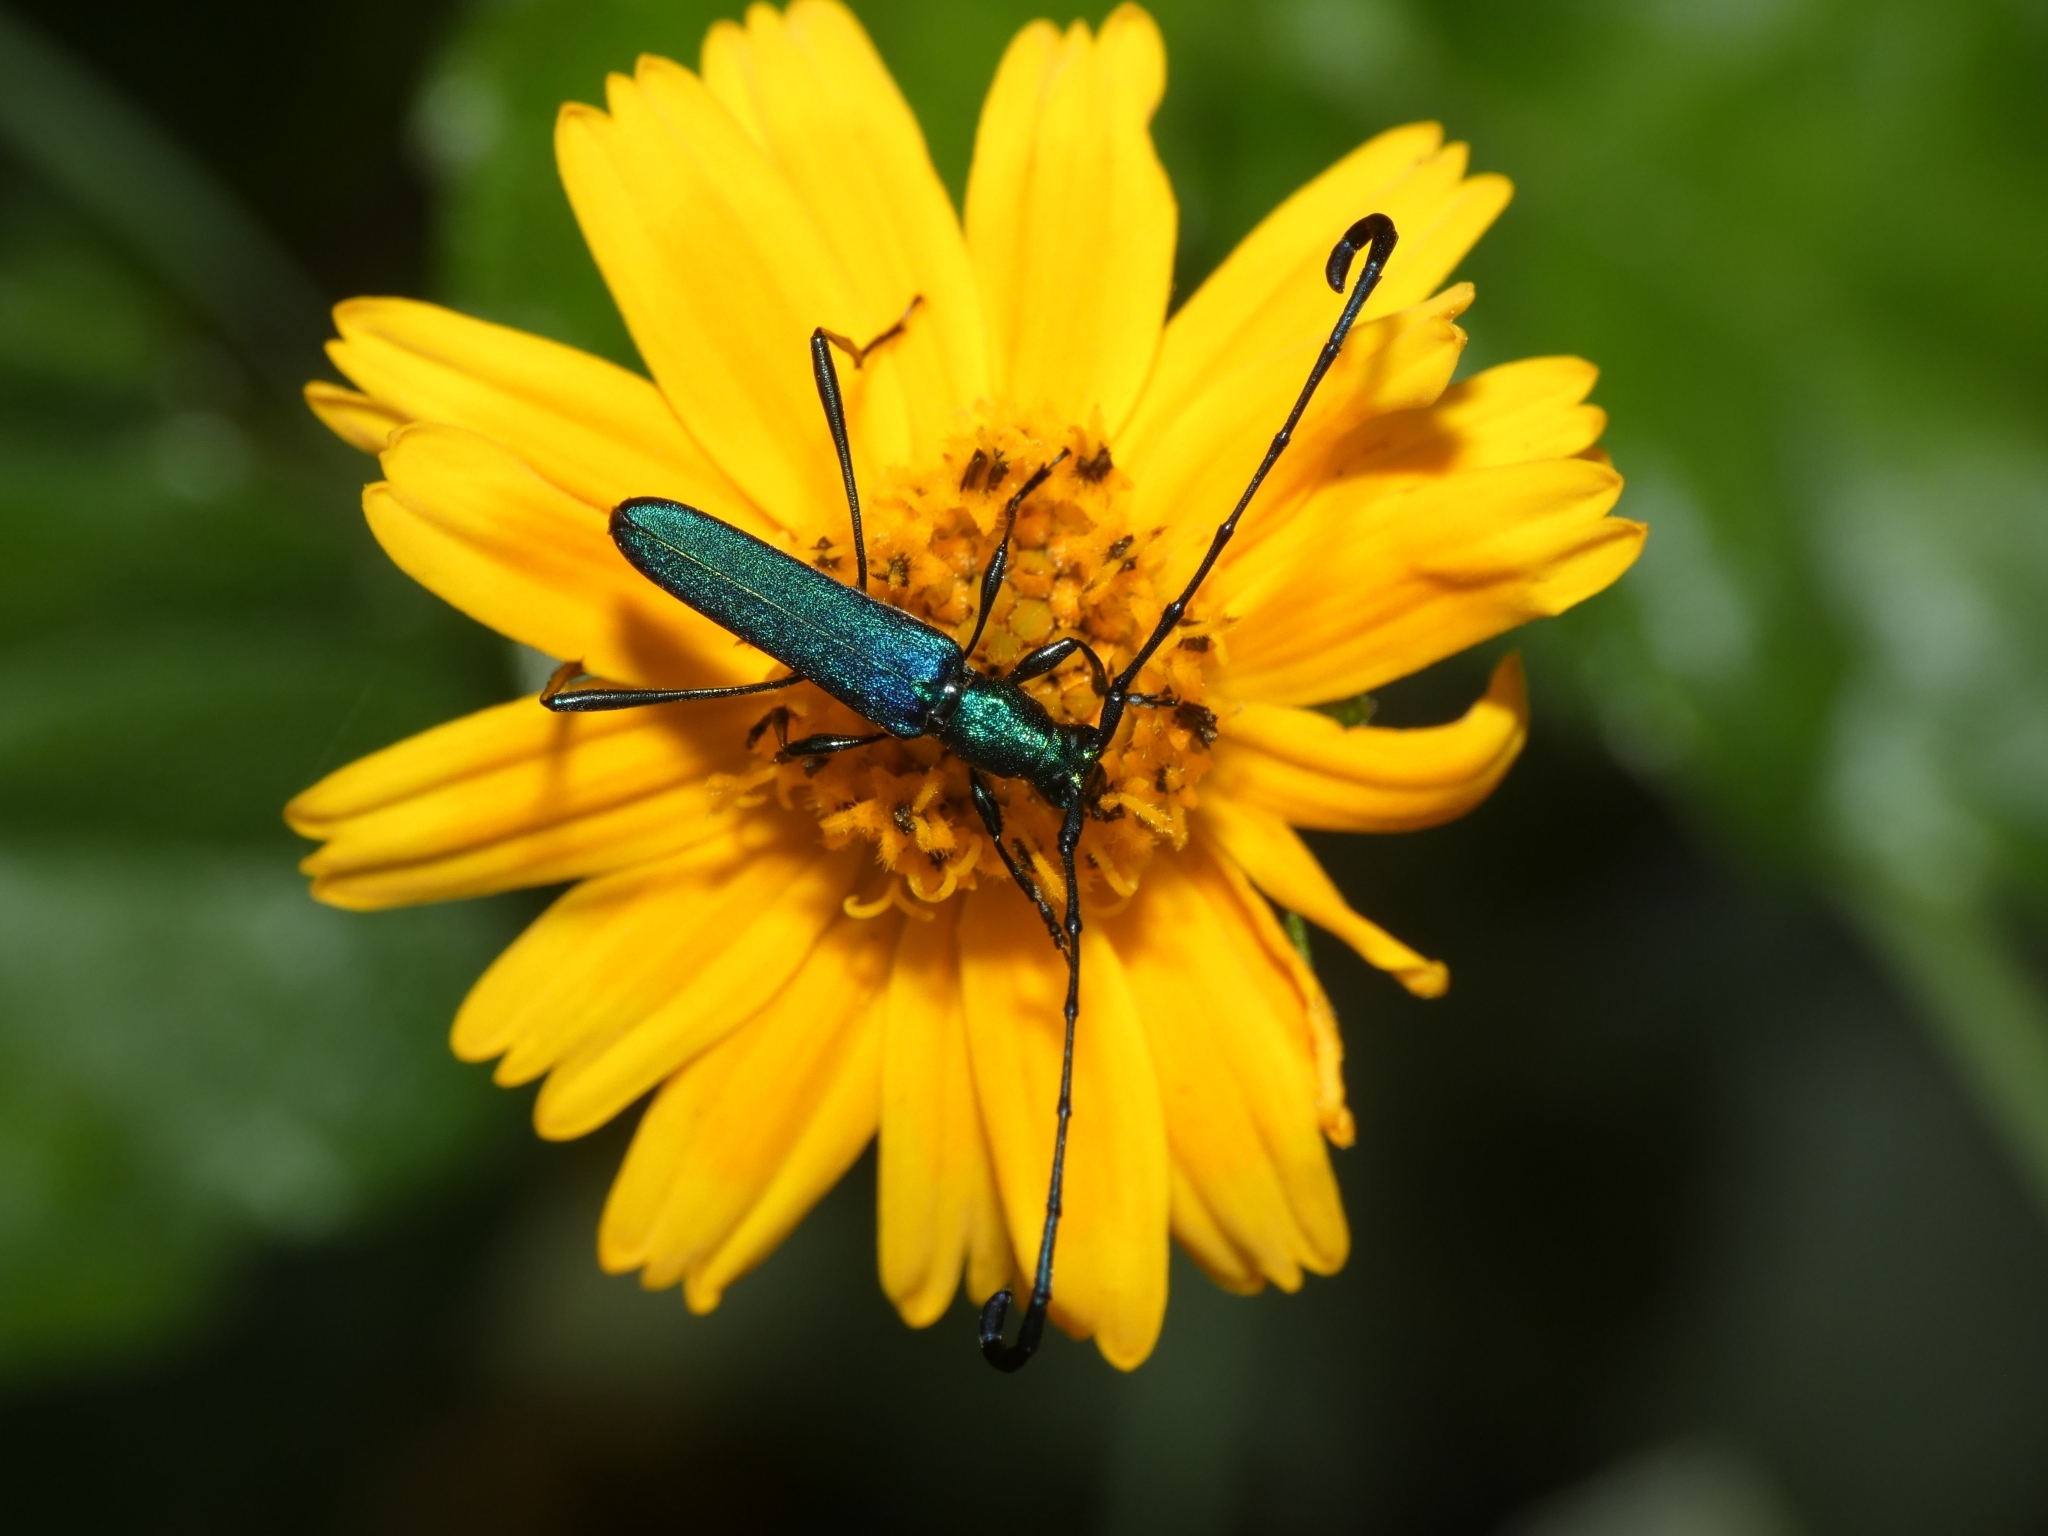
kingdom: Animalia
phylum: Arthropoda
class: Insecta
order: Coleoptera
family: Cerambycidae
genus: Hypocrites
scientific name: Hypocrites
